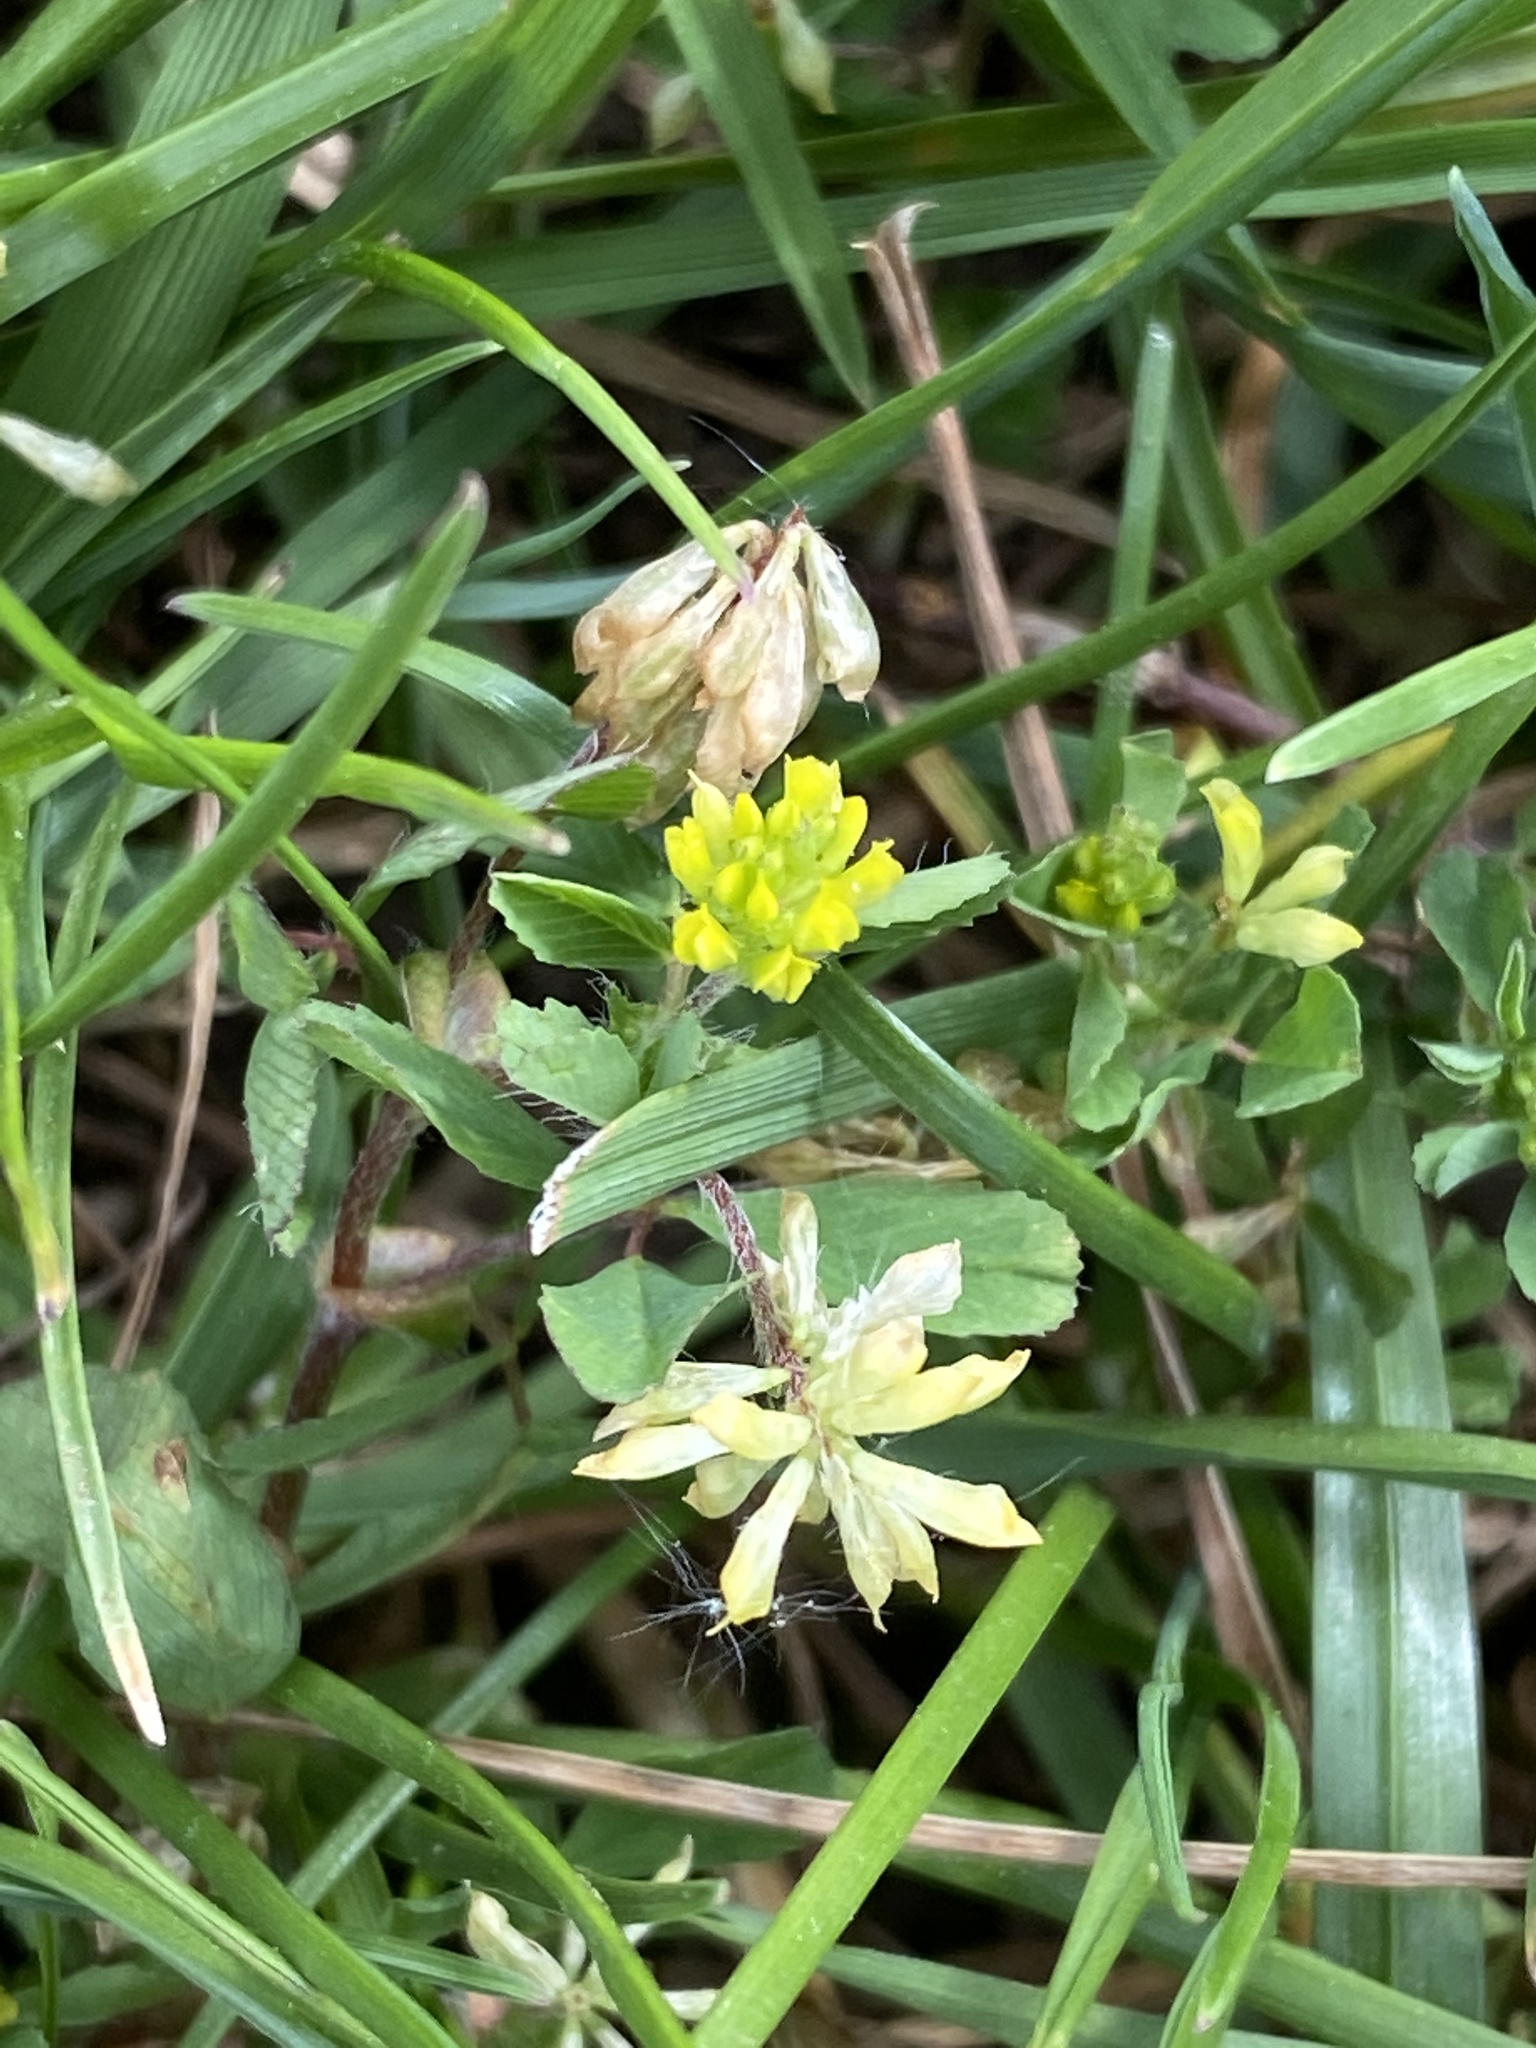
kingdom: Plantae
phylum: Tracheophyta
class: Magnoliopsida
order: Fabales
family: Fabaceae
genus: Trifolium
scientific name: Trifolium dubium
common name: Suckling clover
